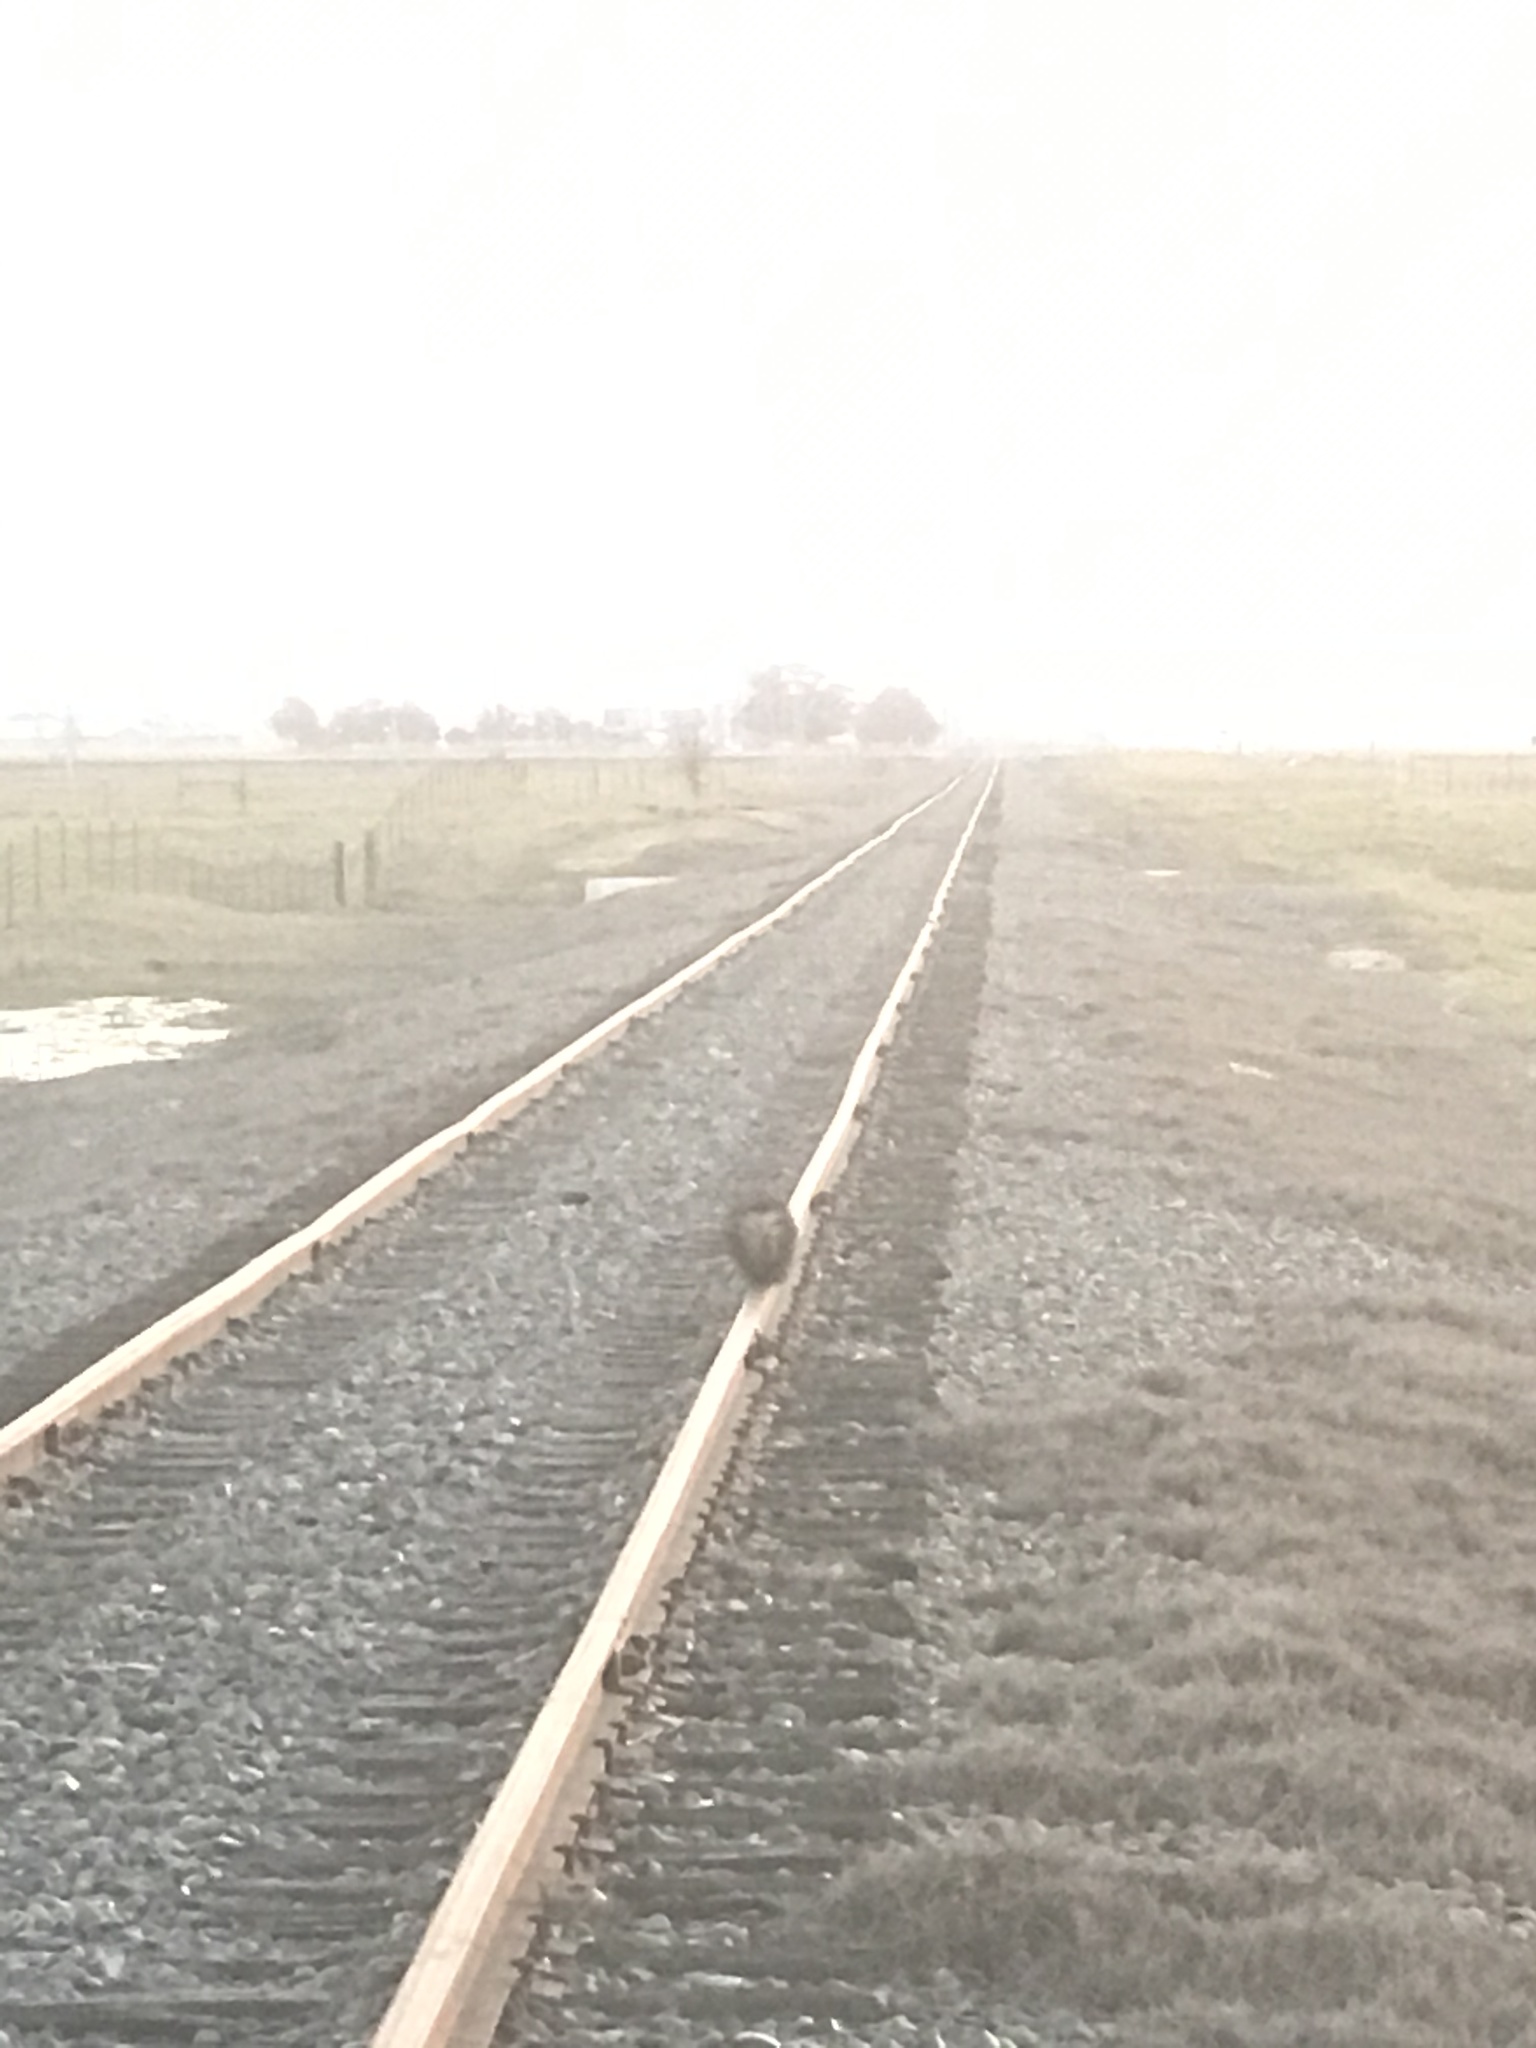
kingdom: Animalia
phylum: Chordata
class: Mammalia
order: Carnivora
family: Mephitidae
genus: Mephitis
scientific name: Mephitis mephitis
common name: Striped skunk
